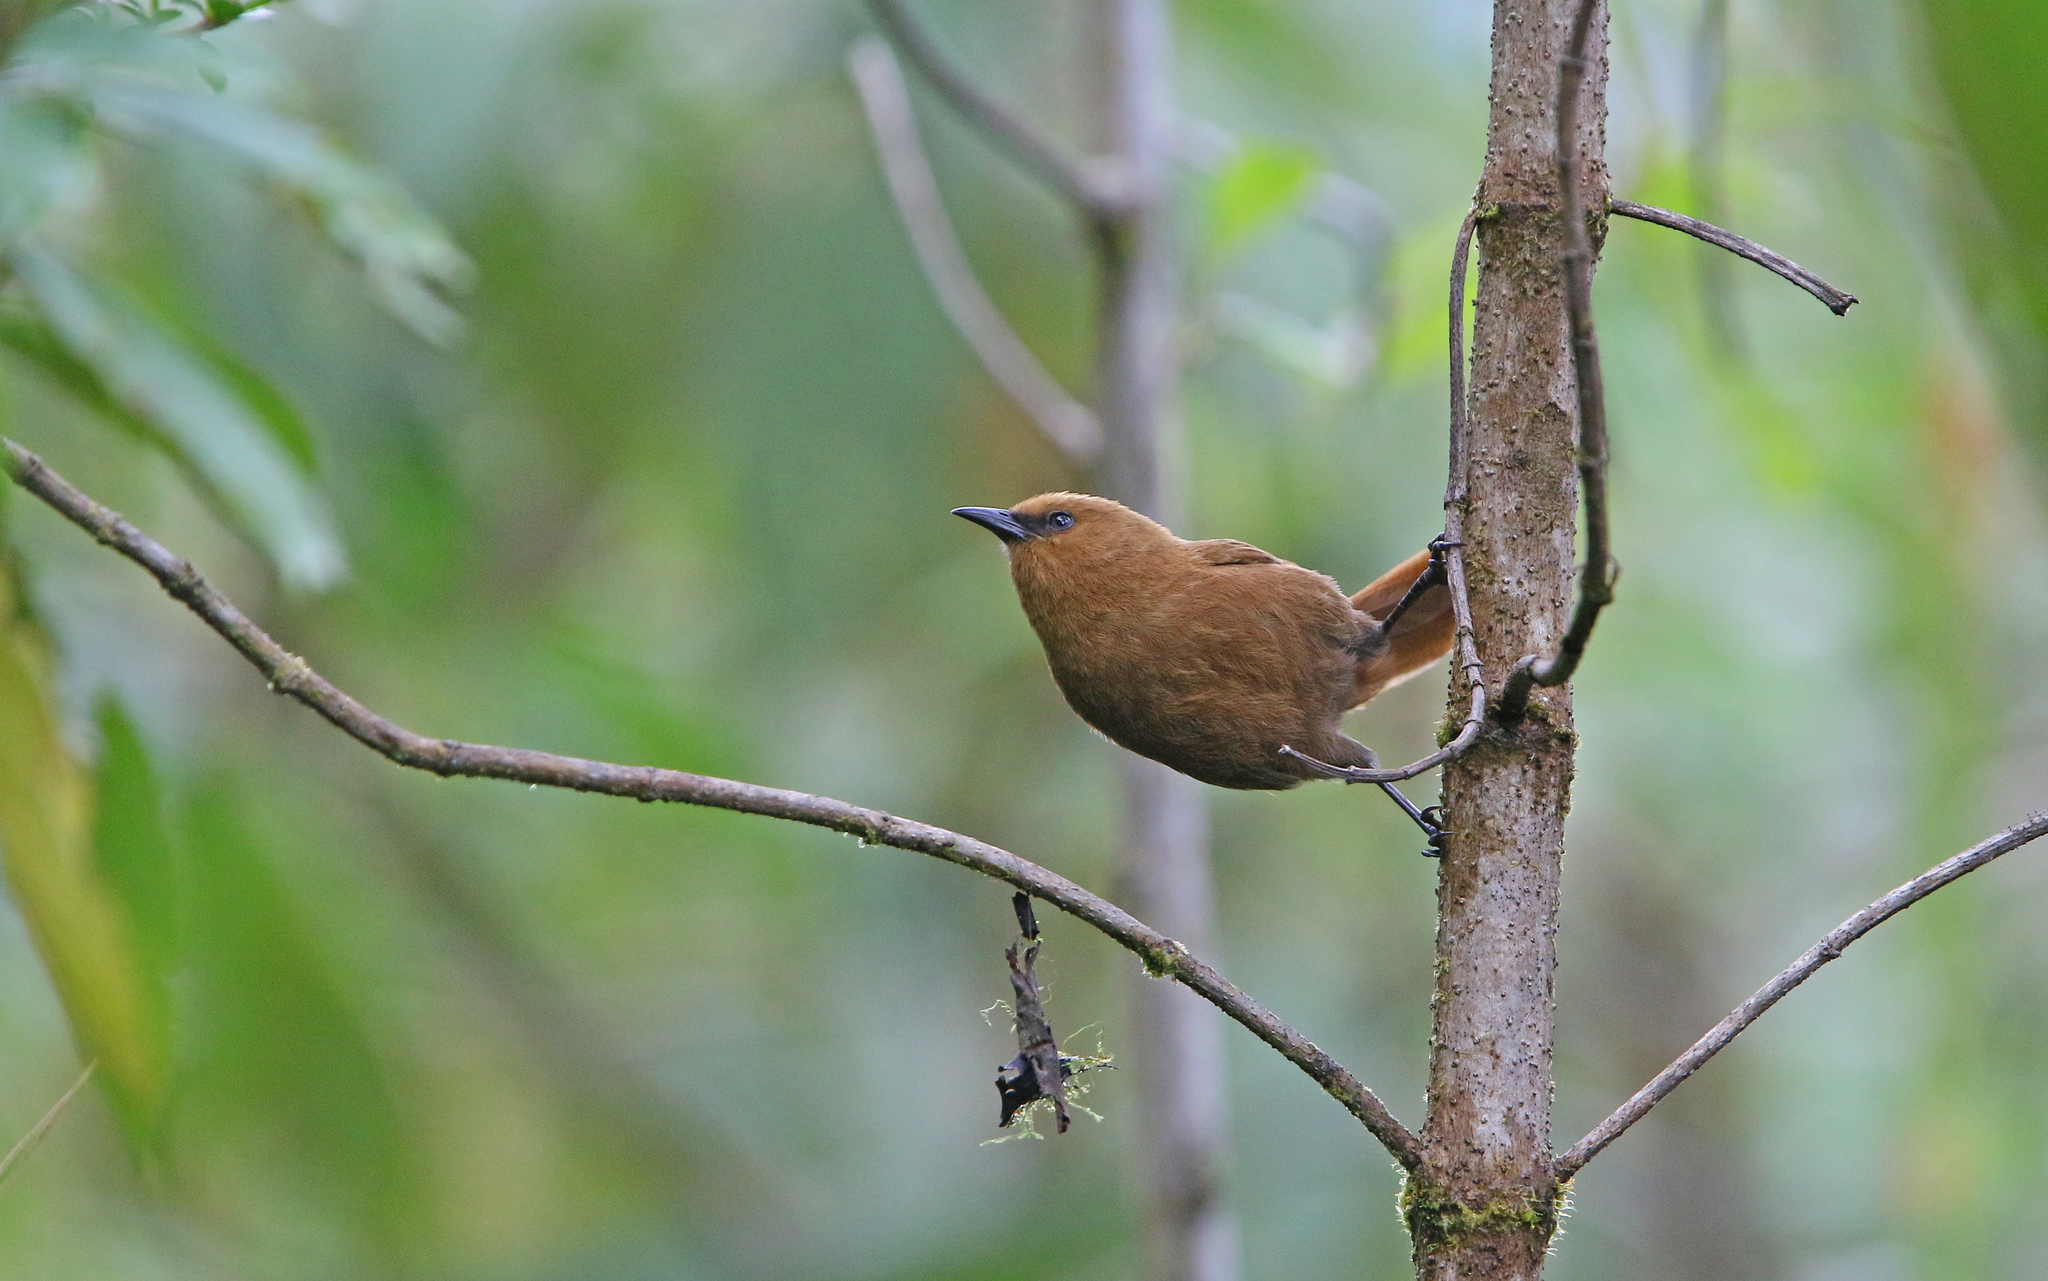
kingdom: Animalia
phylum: Chordata
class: Aves
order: Passeriformes
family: Troglodytidae
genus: Cinnycerthia
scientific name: Cinnycerthia unirufa
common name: Rufous wren
